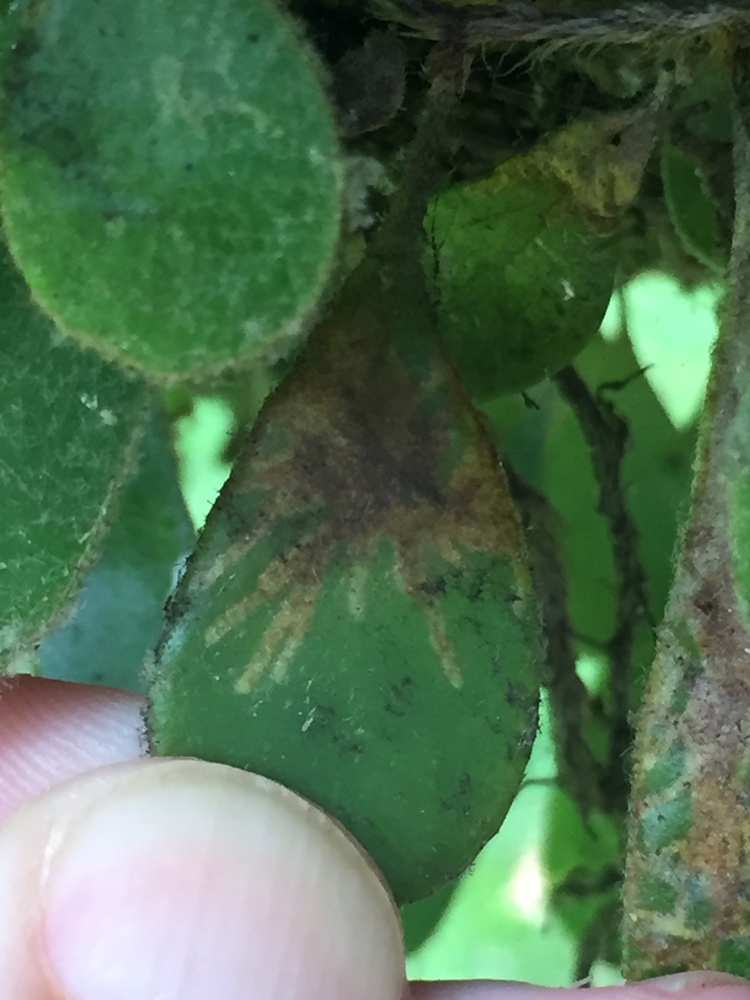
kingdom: Animalia
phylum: Arthropoda
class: Insecta
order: Lepidoptera
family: Tortricidae
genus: Philocryptica
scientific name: Philocryptica polypodii
